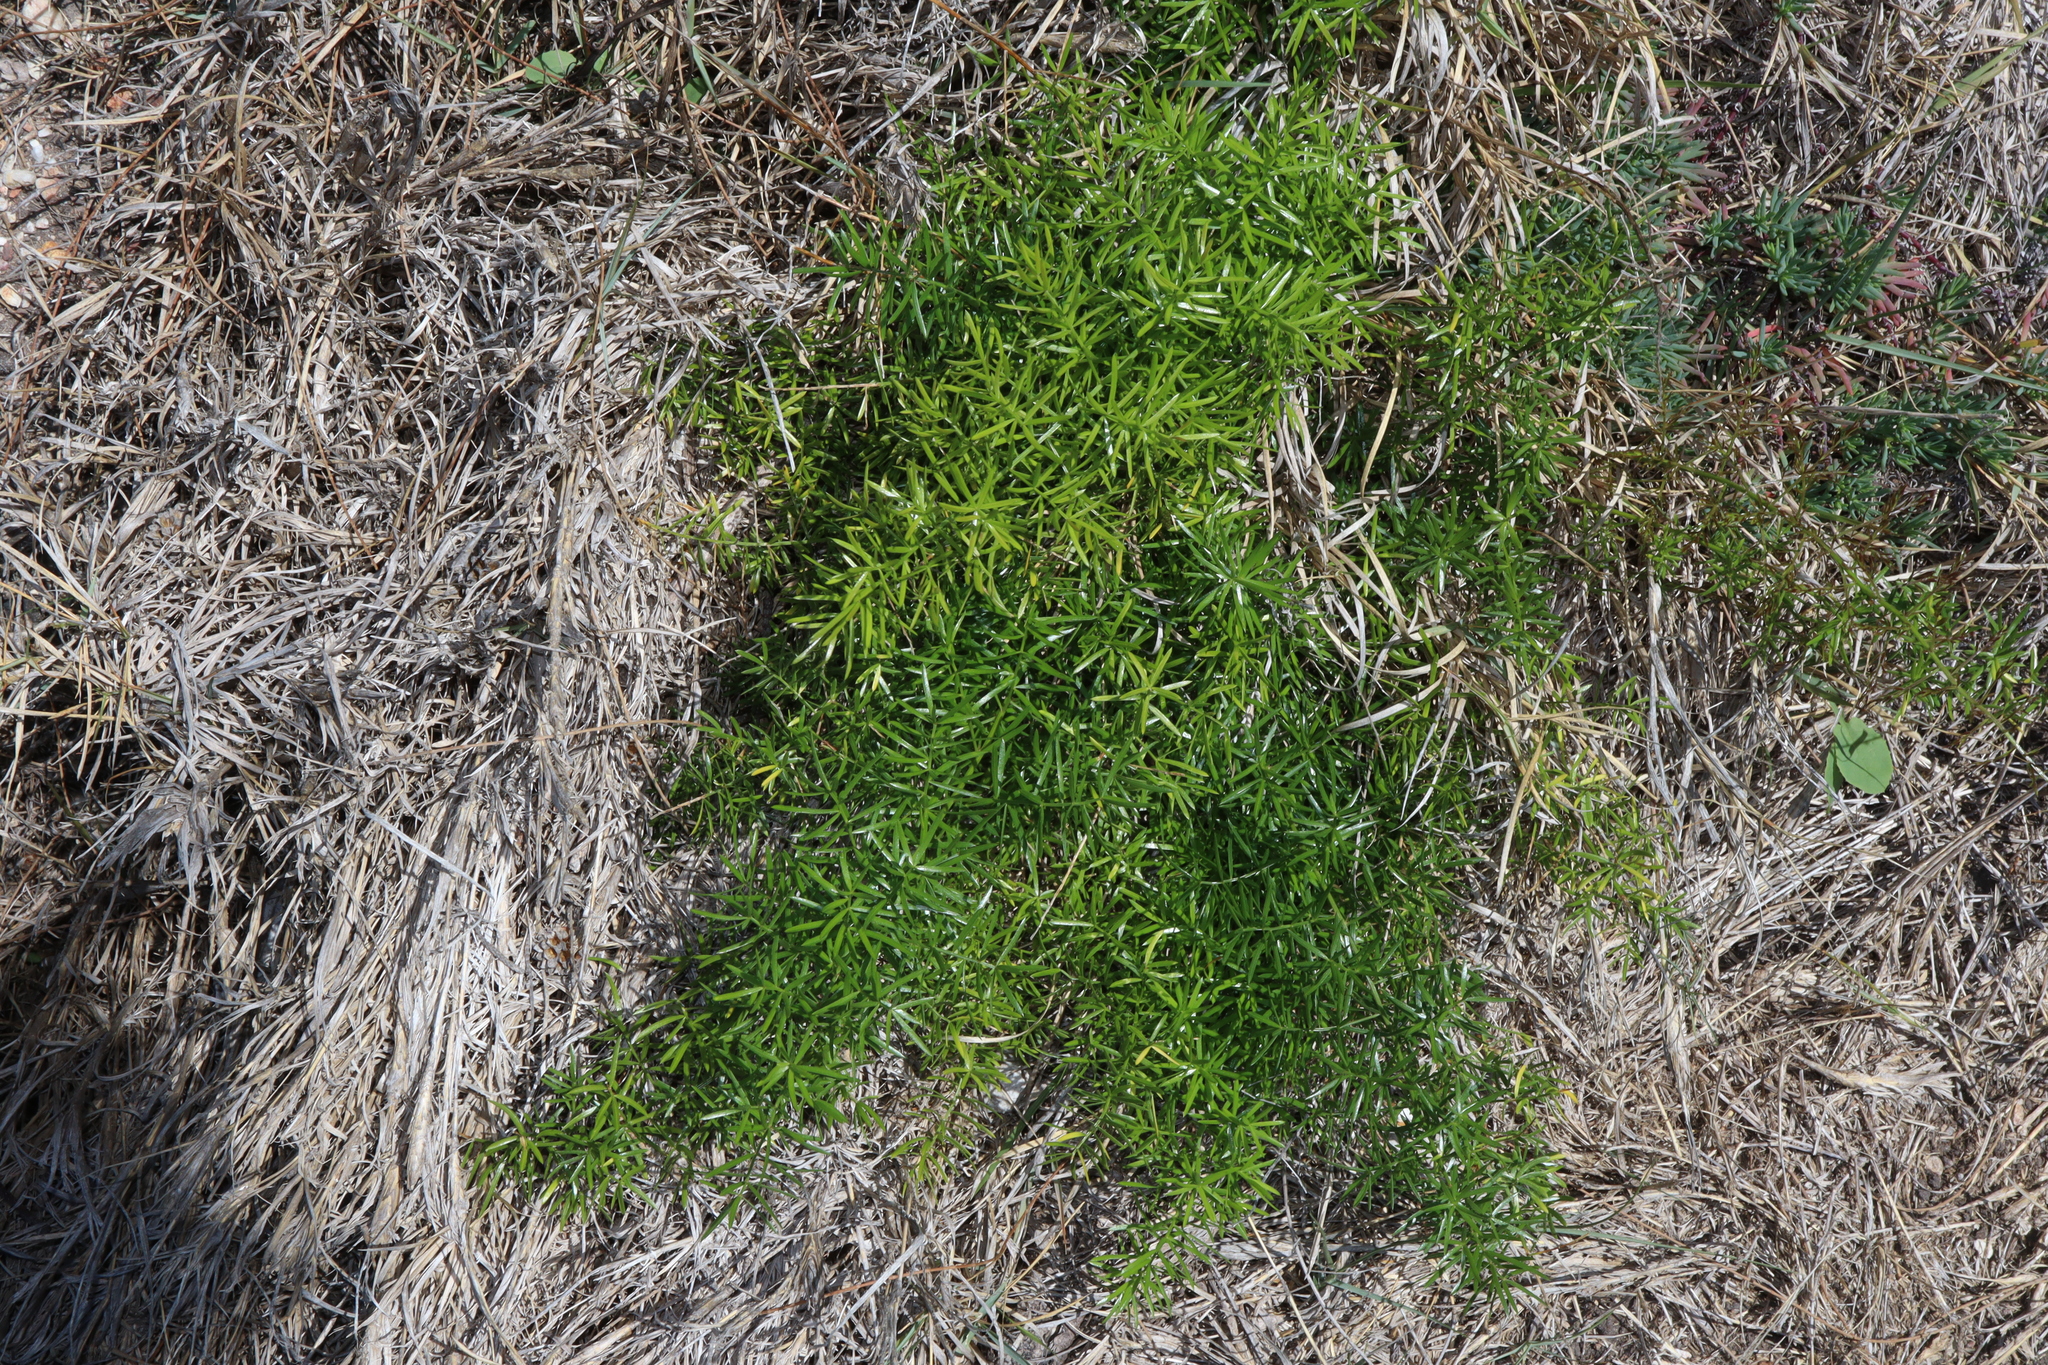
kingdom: Plantae
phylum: Tracheophyta
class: Liliopsida
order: Asparagales
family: Asparagaceae
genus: Asparagus
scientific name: Asparagus aethiopicus
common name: Sprenger's asparagus fern
